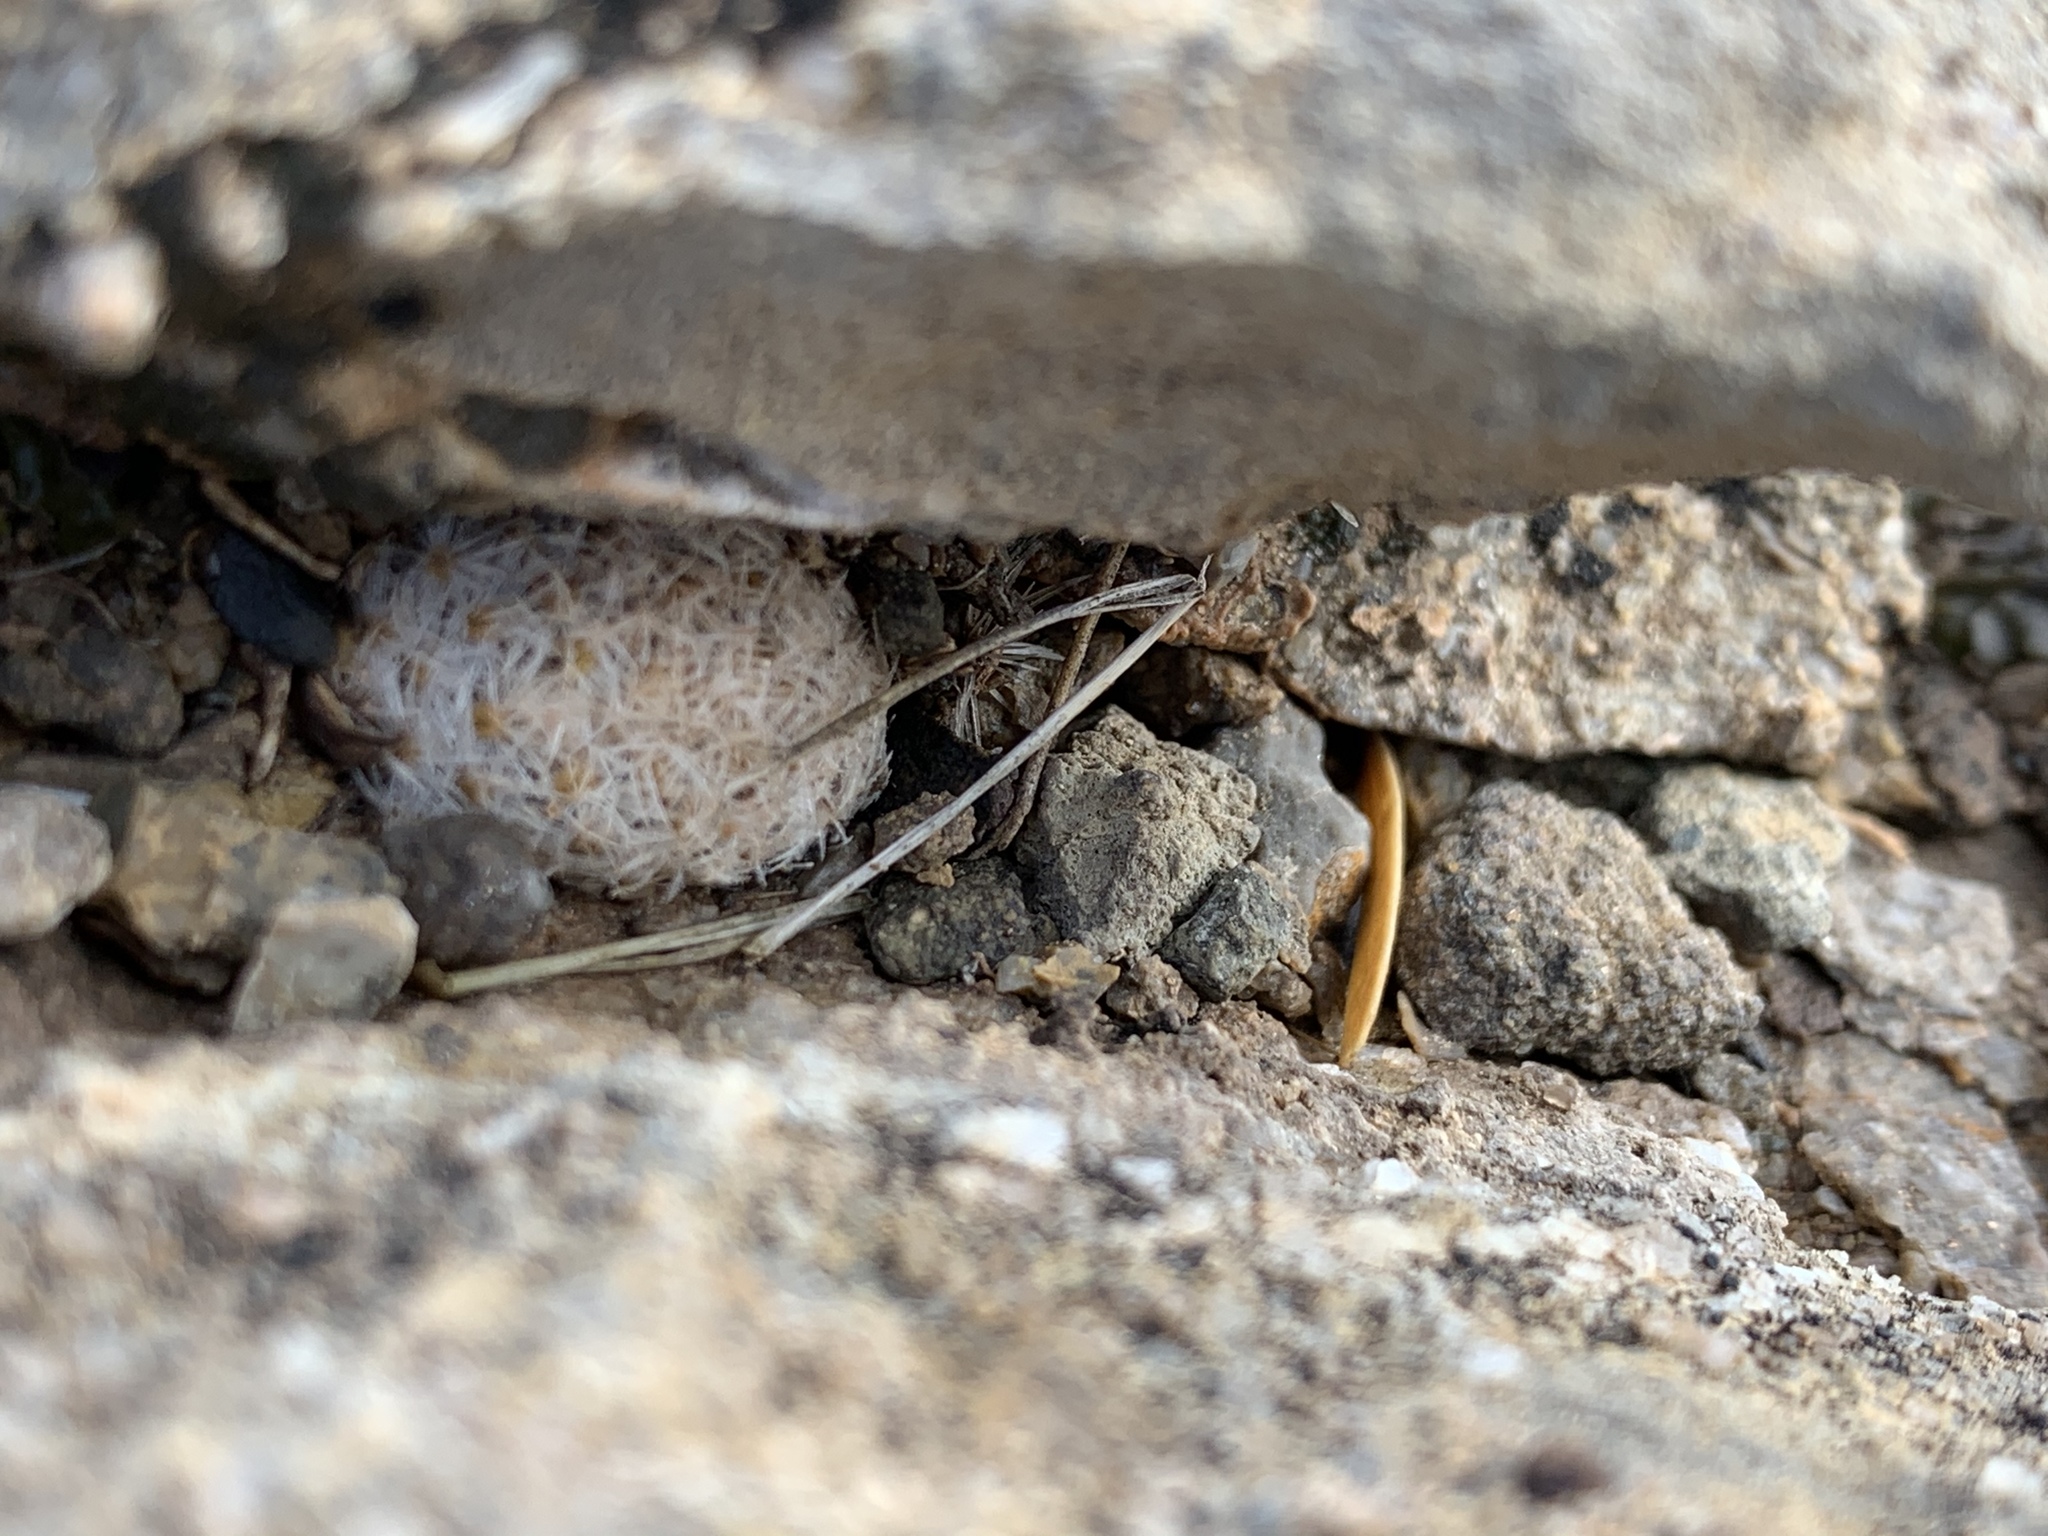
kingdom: Plantae
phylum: Tracheophyta
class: Magnoliopsida
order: Caryophyllales
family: Cactaceae
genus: Mammillaria
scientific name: Mammillaria lasiacantha
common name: Lace-spine nipple cactus
